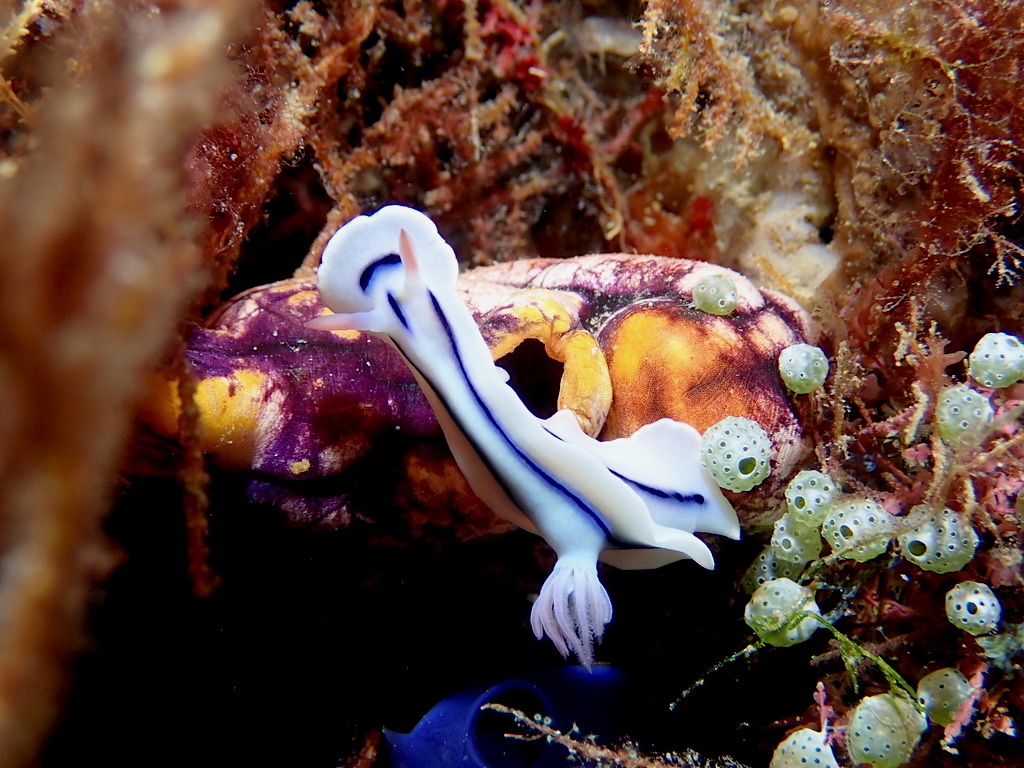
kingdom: Animalia
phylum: Mollusca
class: Gastropoda
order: Nudibranchia
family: Chromodorididae
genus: Chromodoris
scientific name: Chromodoris lochi
